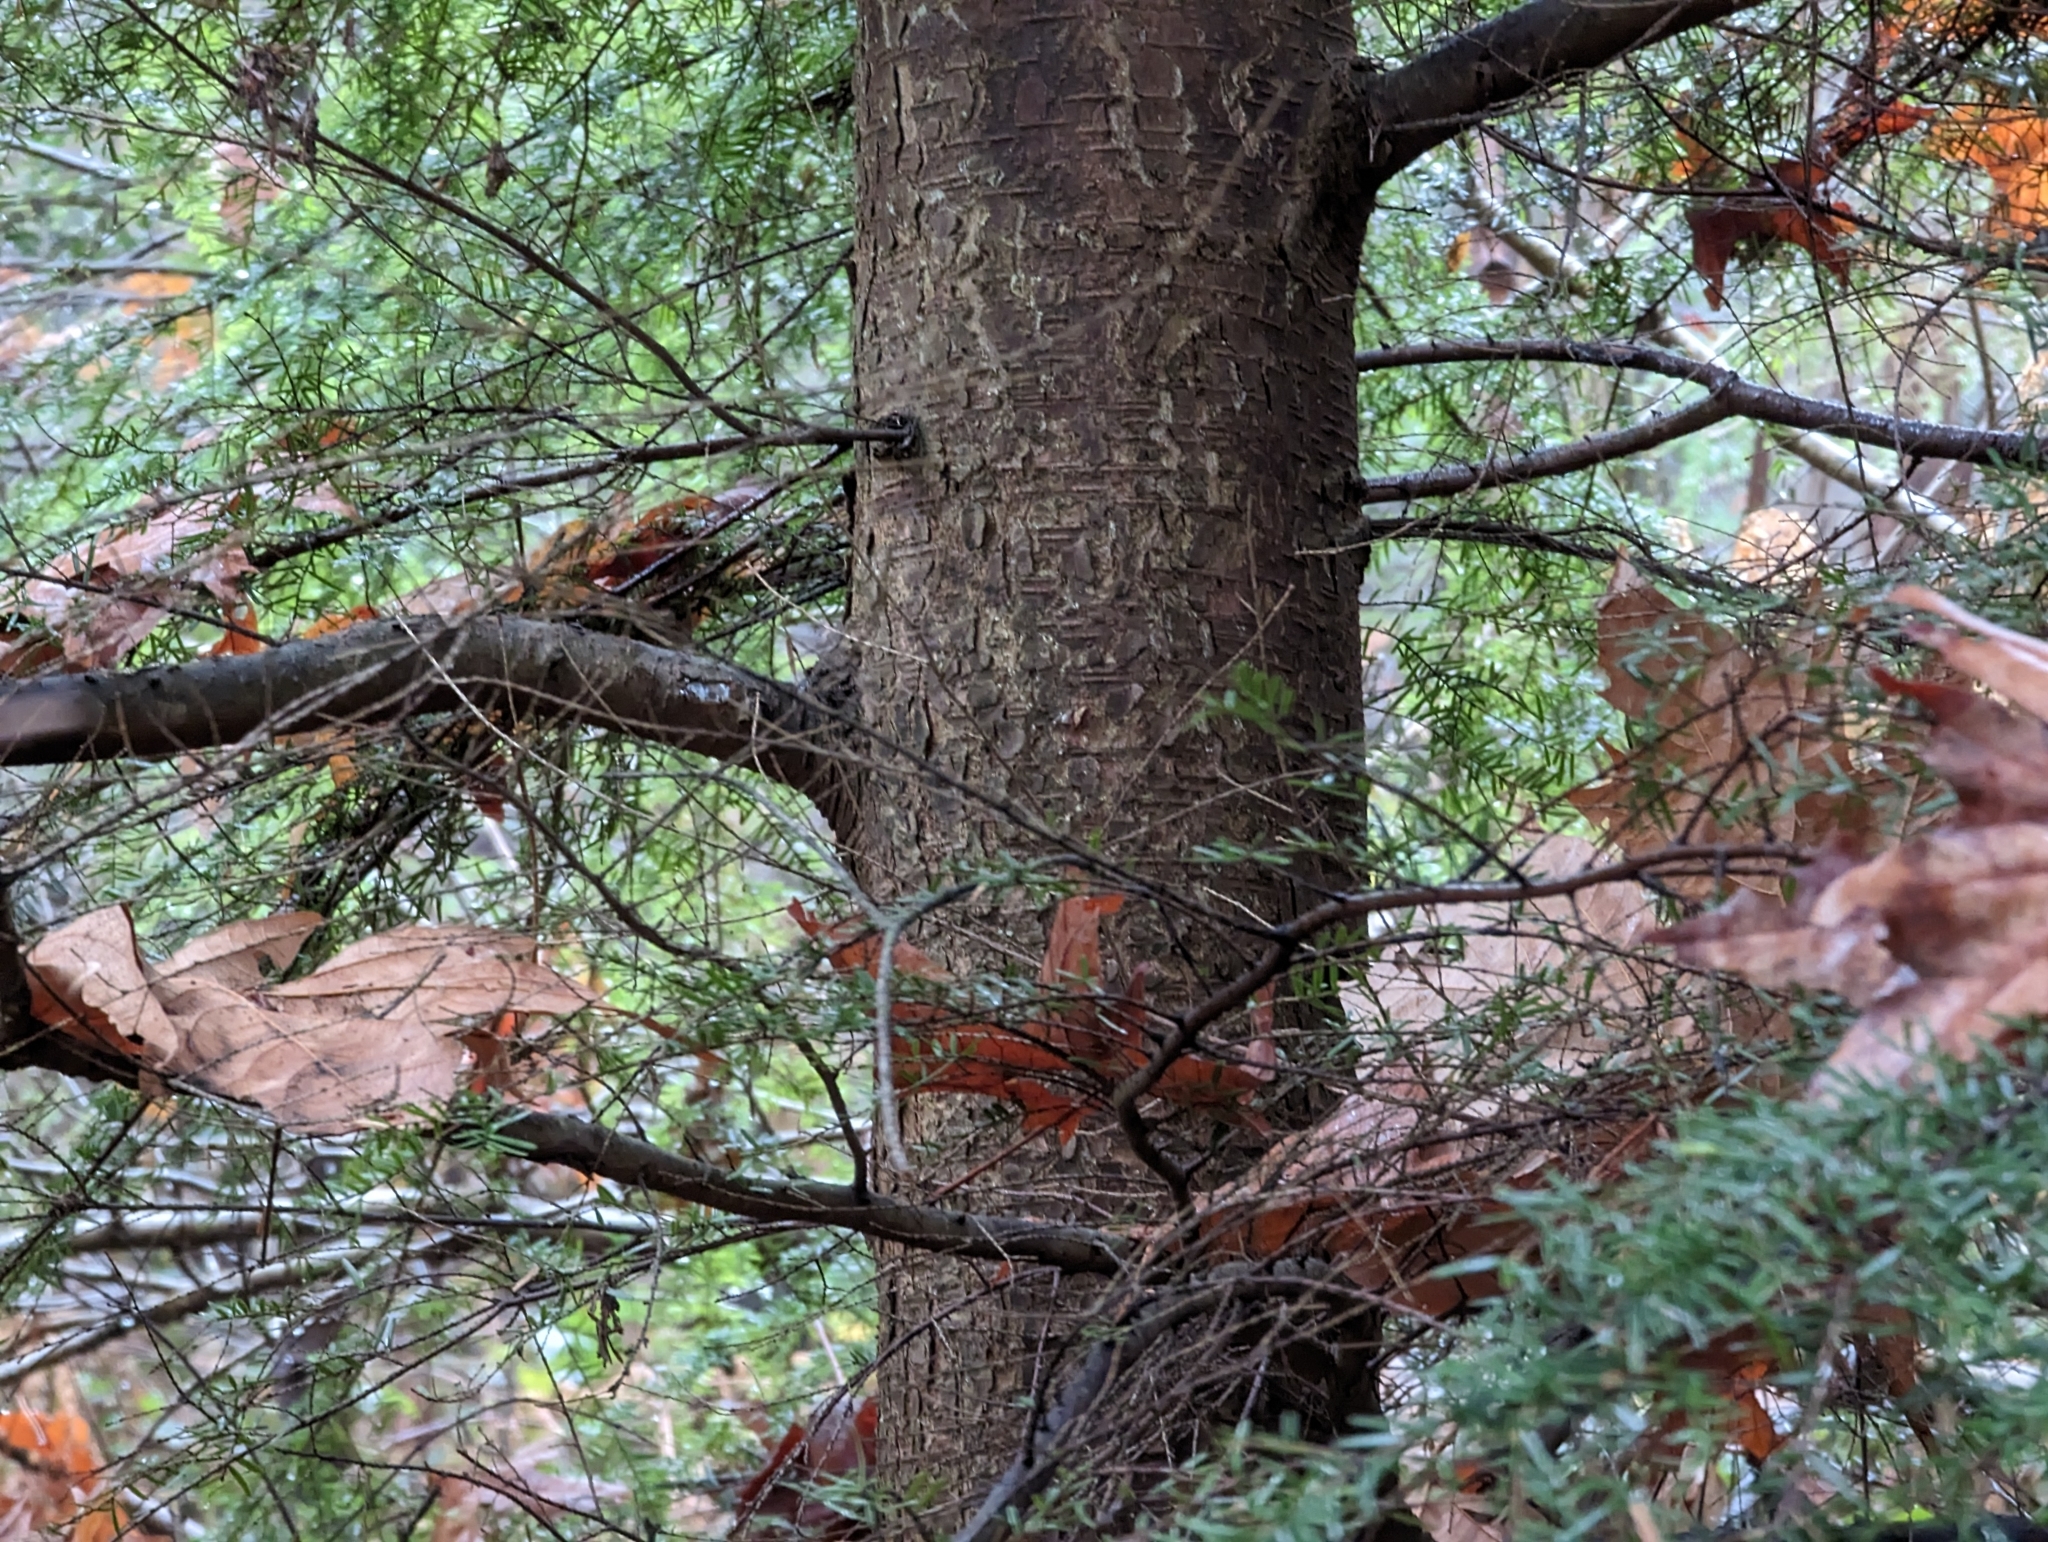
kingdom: Plantae
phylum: Tracheophyta
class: Pinopsida
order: Pinales
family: Pinaceae
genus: Tsuga
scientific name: Tsuga heterophylla
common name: Western hemlock
